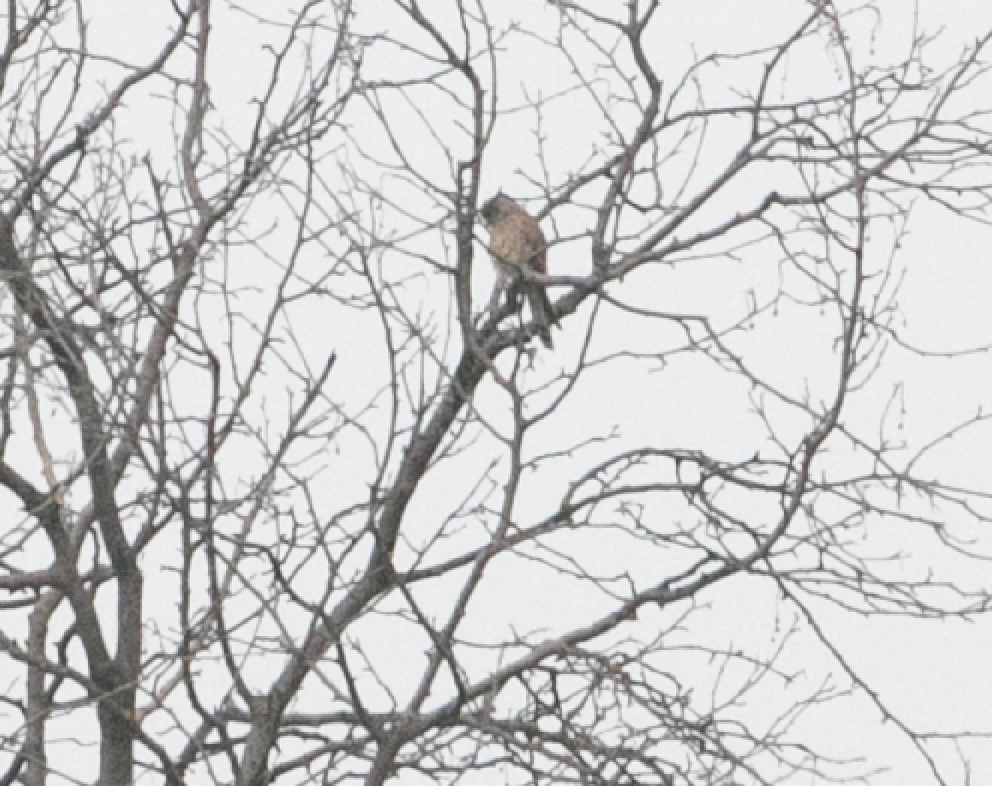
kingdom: Animalia
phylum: Chordata
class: Aves
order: Falconiformes
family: Falconidae
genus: Falco
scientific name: Falco tinnunculus
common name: Common kestrel
